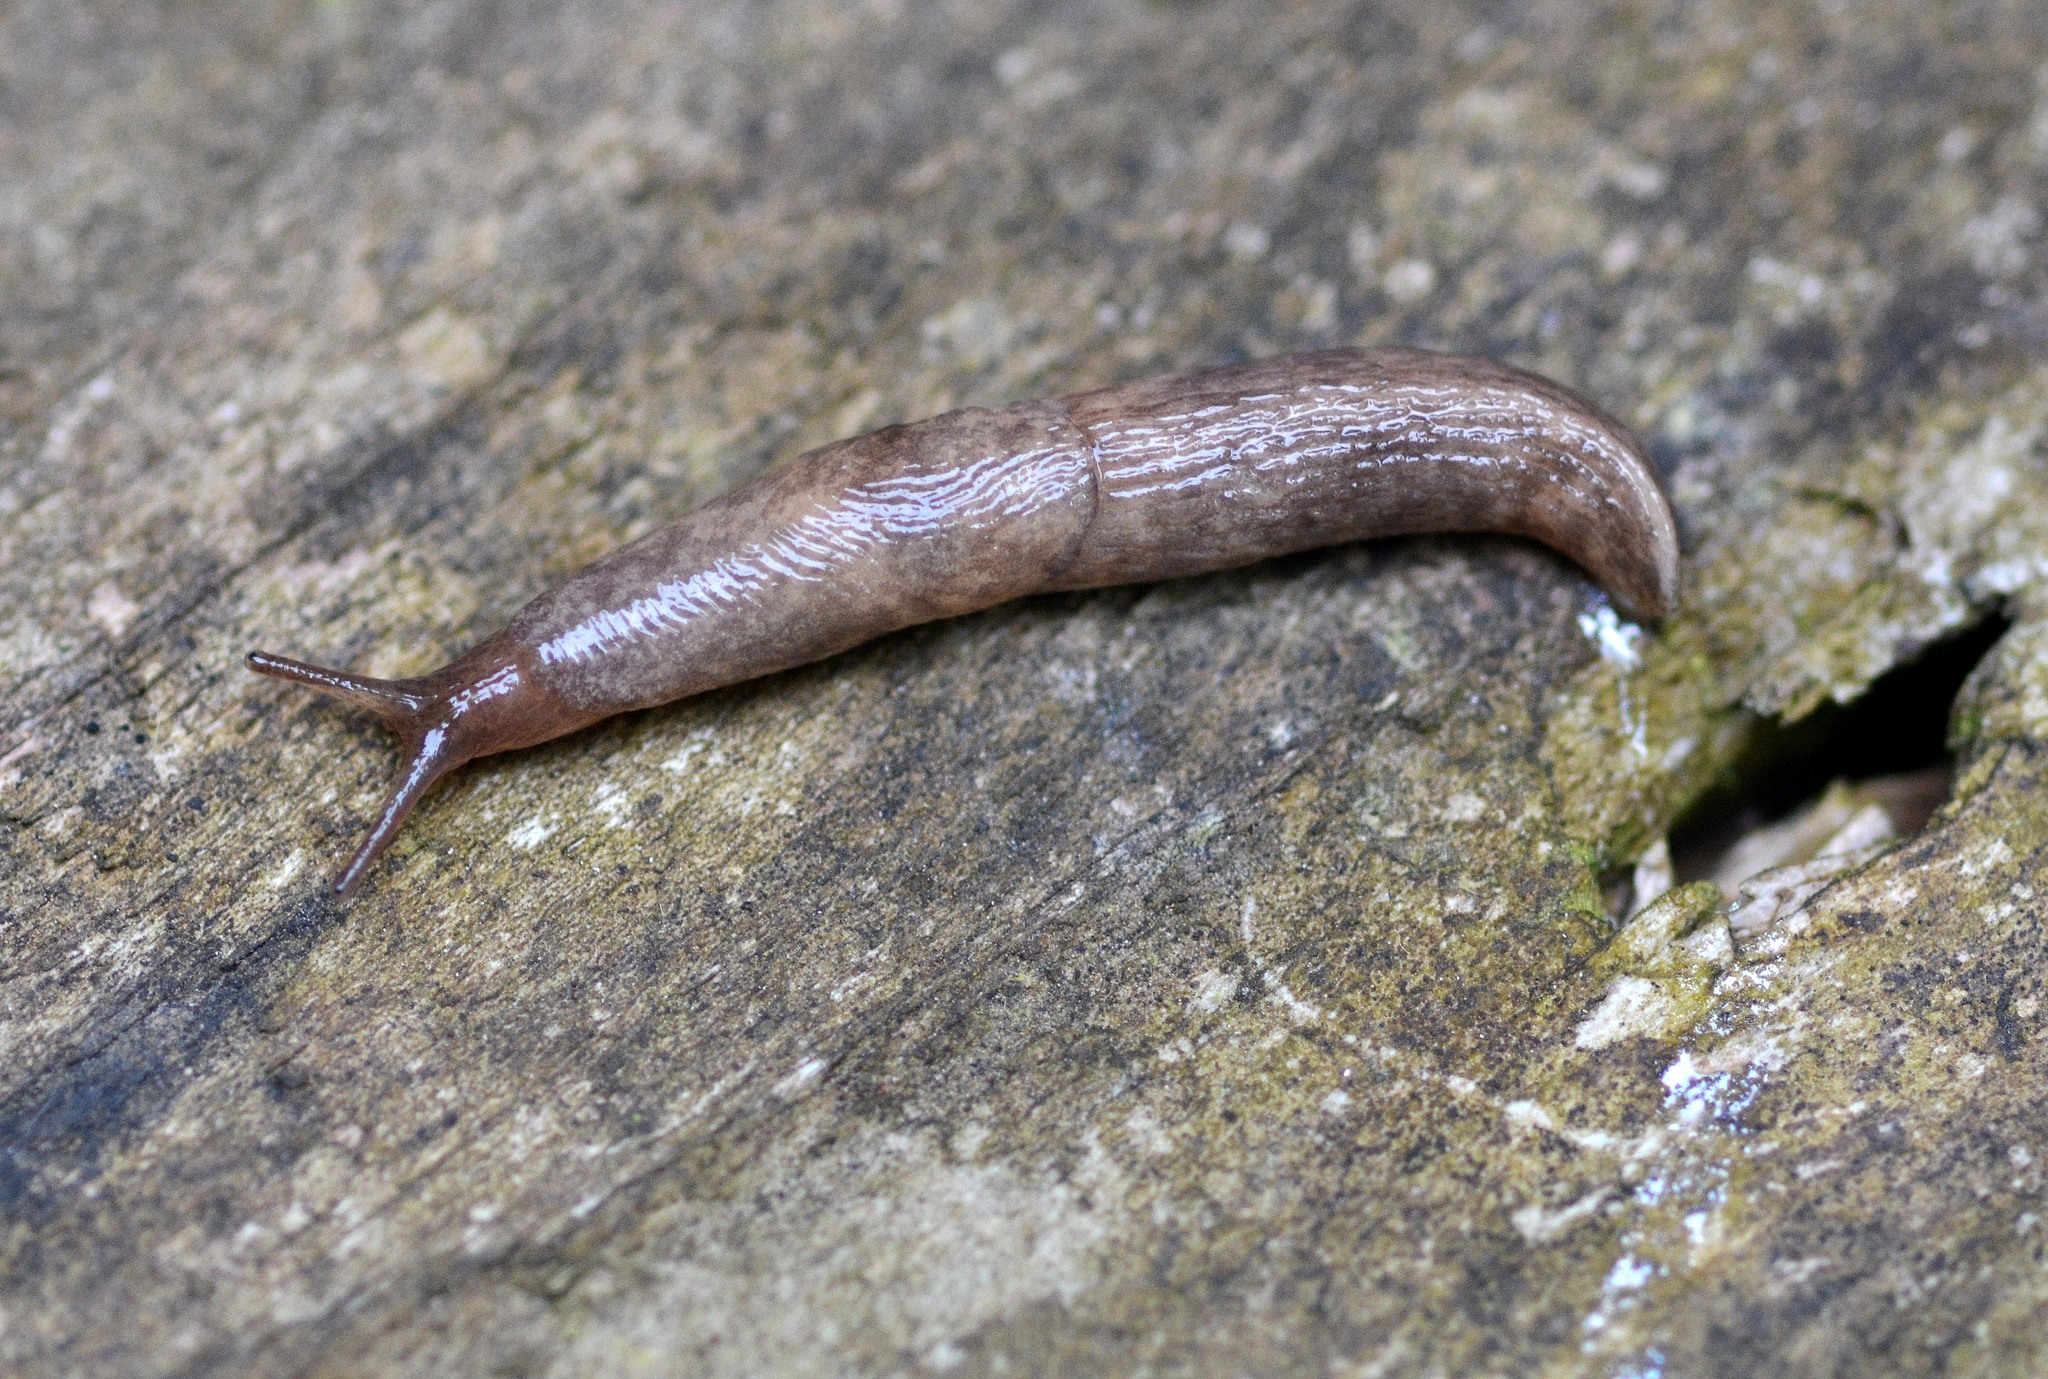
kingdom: Animalia
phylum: Mollusca
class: Gastropoda
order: Stylommatophora
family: Agriolimacidae
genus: Deroceras
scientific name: Deroceras reticulatum
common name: Gray field slug
